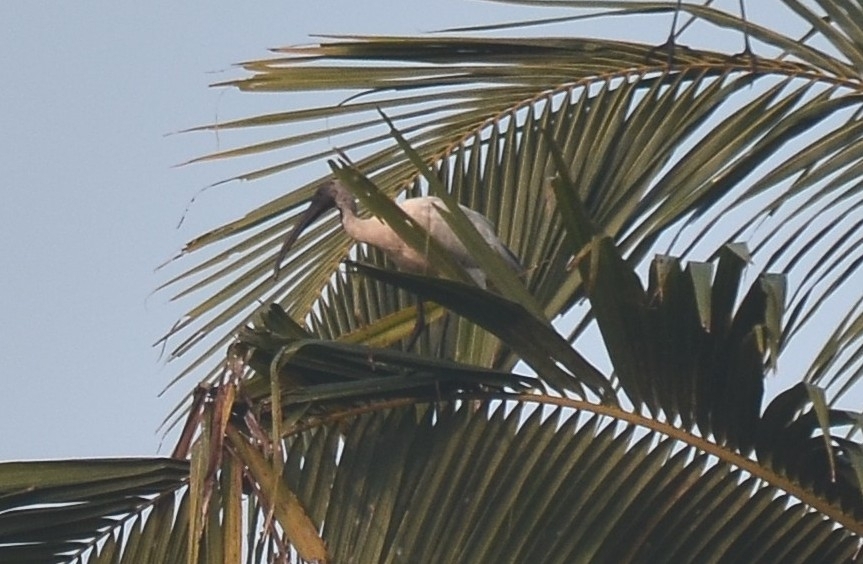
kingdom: Animalia
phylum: Chordata
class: Aves
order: Pelecaniformes
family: Threskiornithidae
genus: Threskiornis
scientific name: Threskiornis melanocephalus
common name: Black-headed ibis
